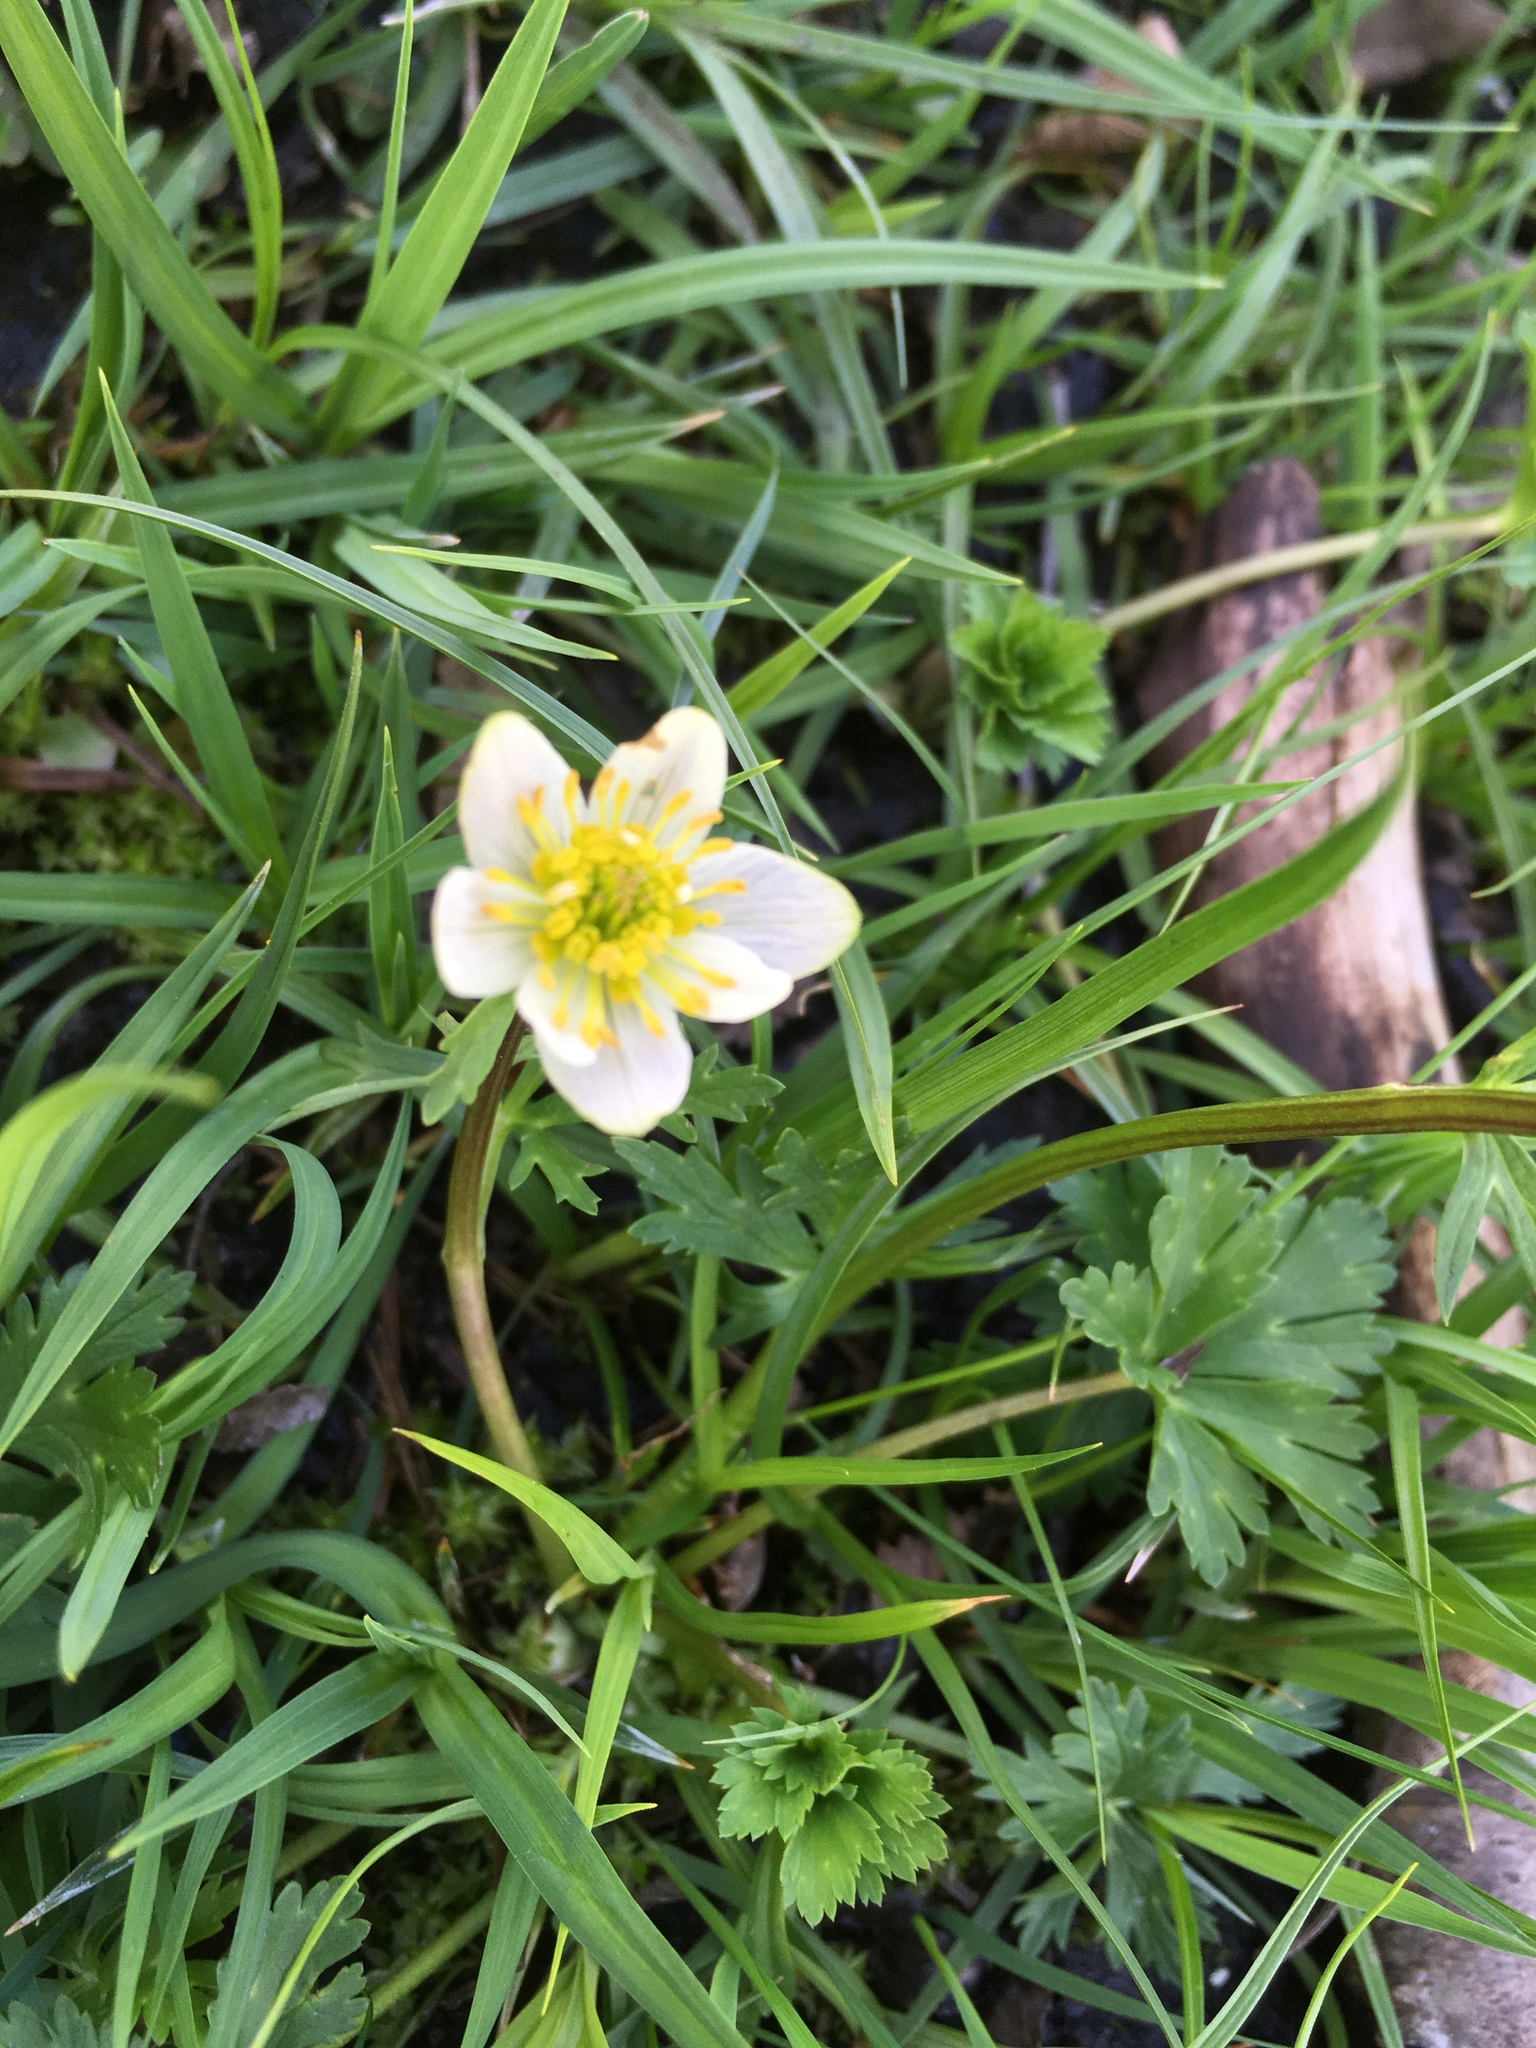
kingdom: Plantae
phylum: Tracheophyta
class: Magnoliopsida
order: Ranunculales
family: Ranunculaceae
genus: Trollius
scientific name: Trollius komarovii
